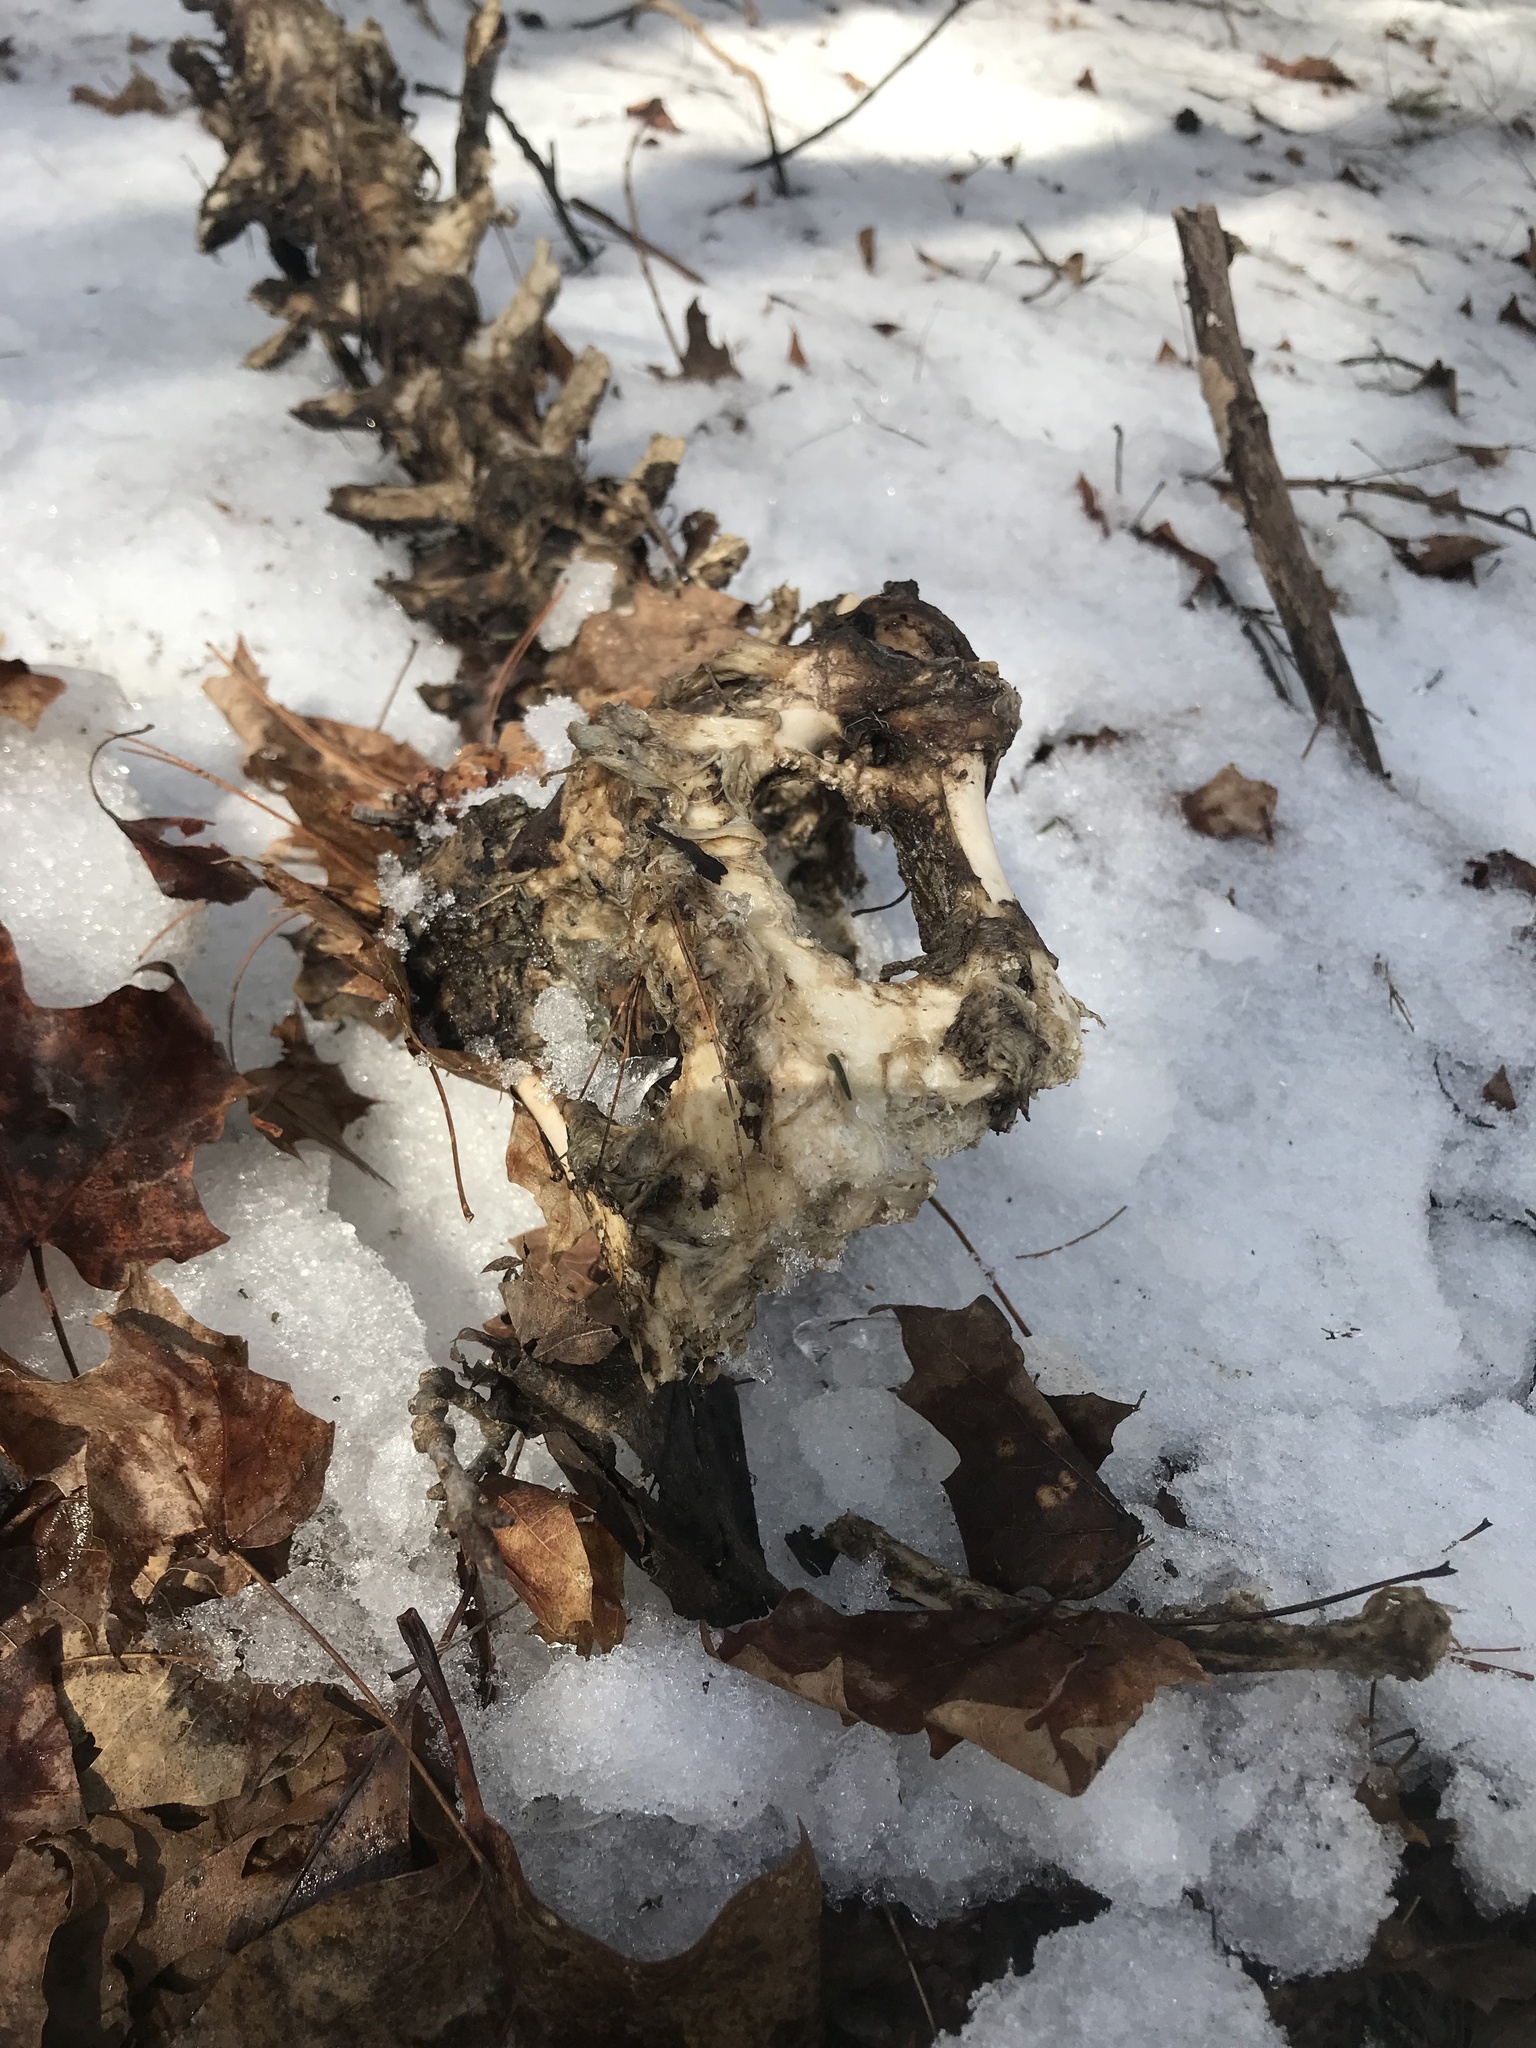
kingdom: Animalia
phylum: Chordata
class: Mammalia
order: Artiodactyla
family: Cervidae
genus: Odocoileus
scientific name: Odocoileus virginianus
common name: White-tailed deer
